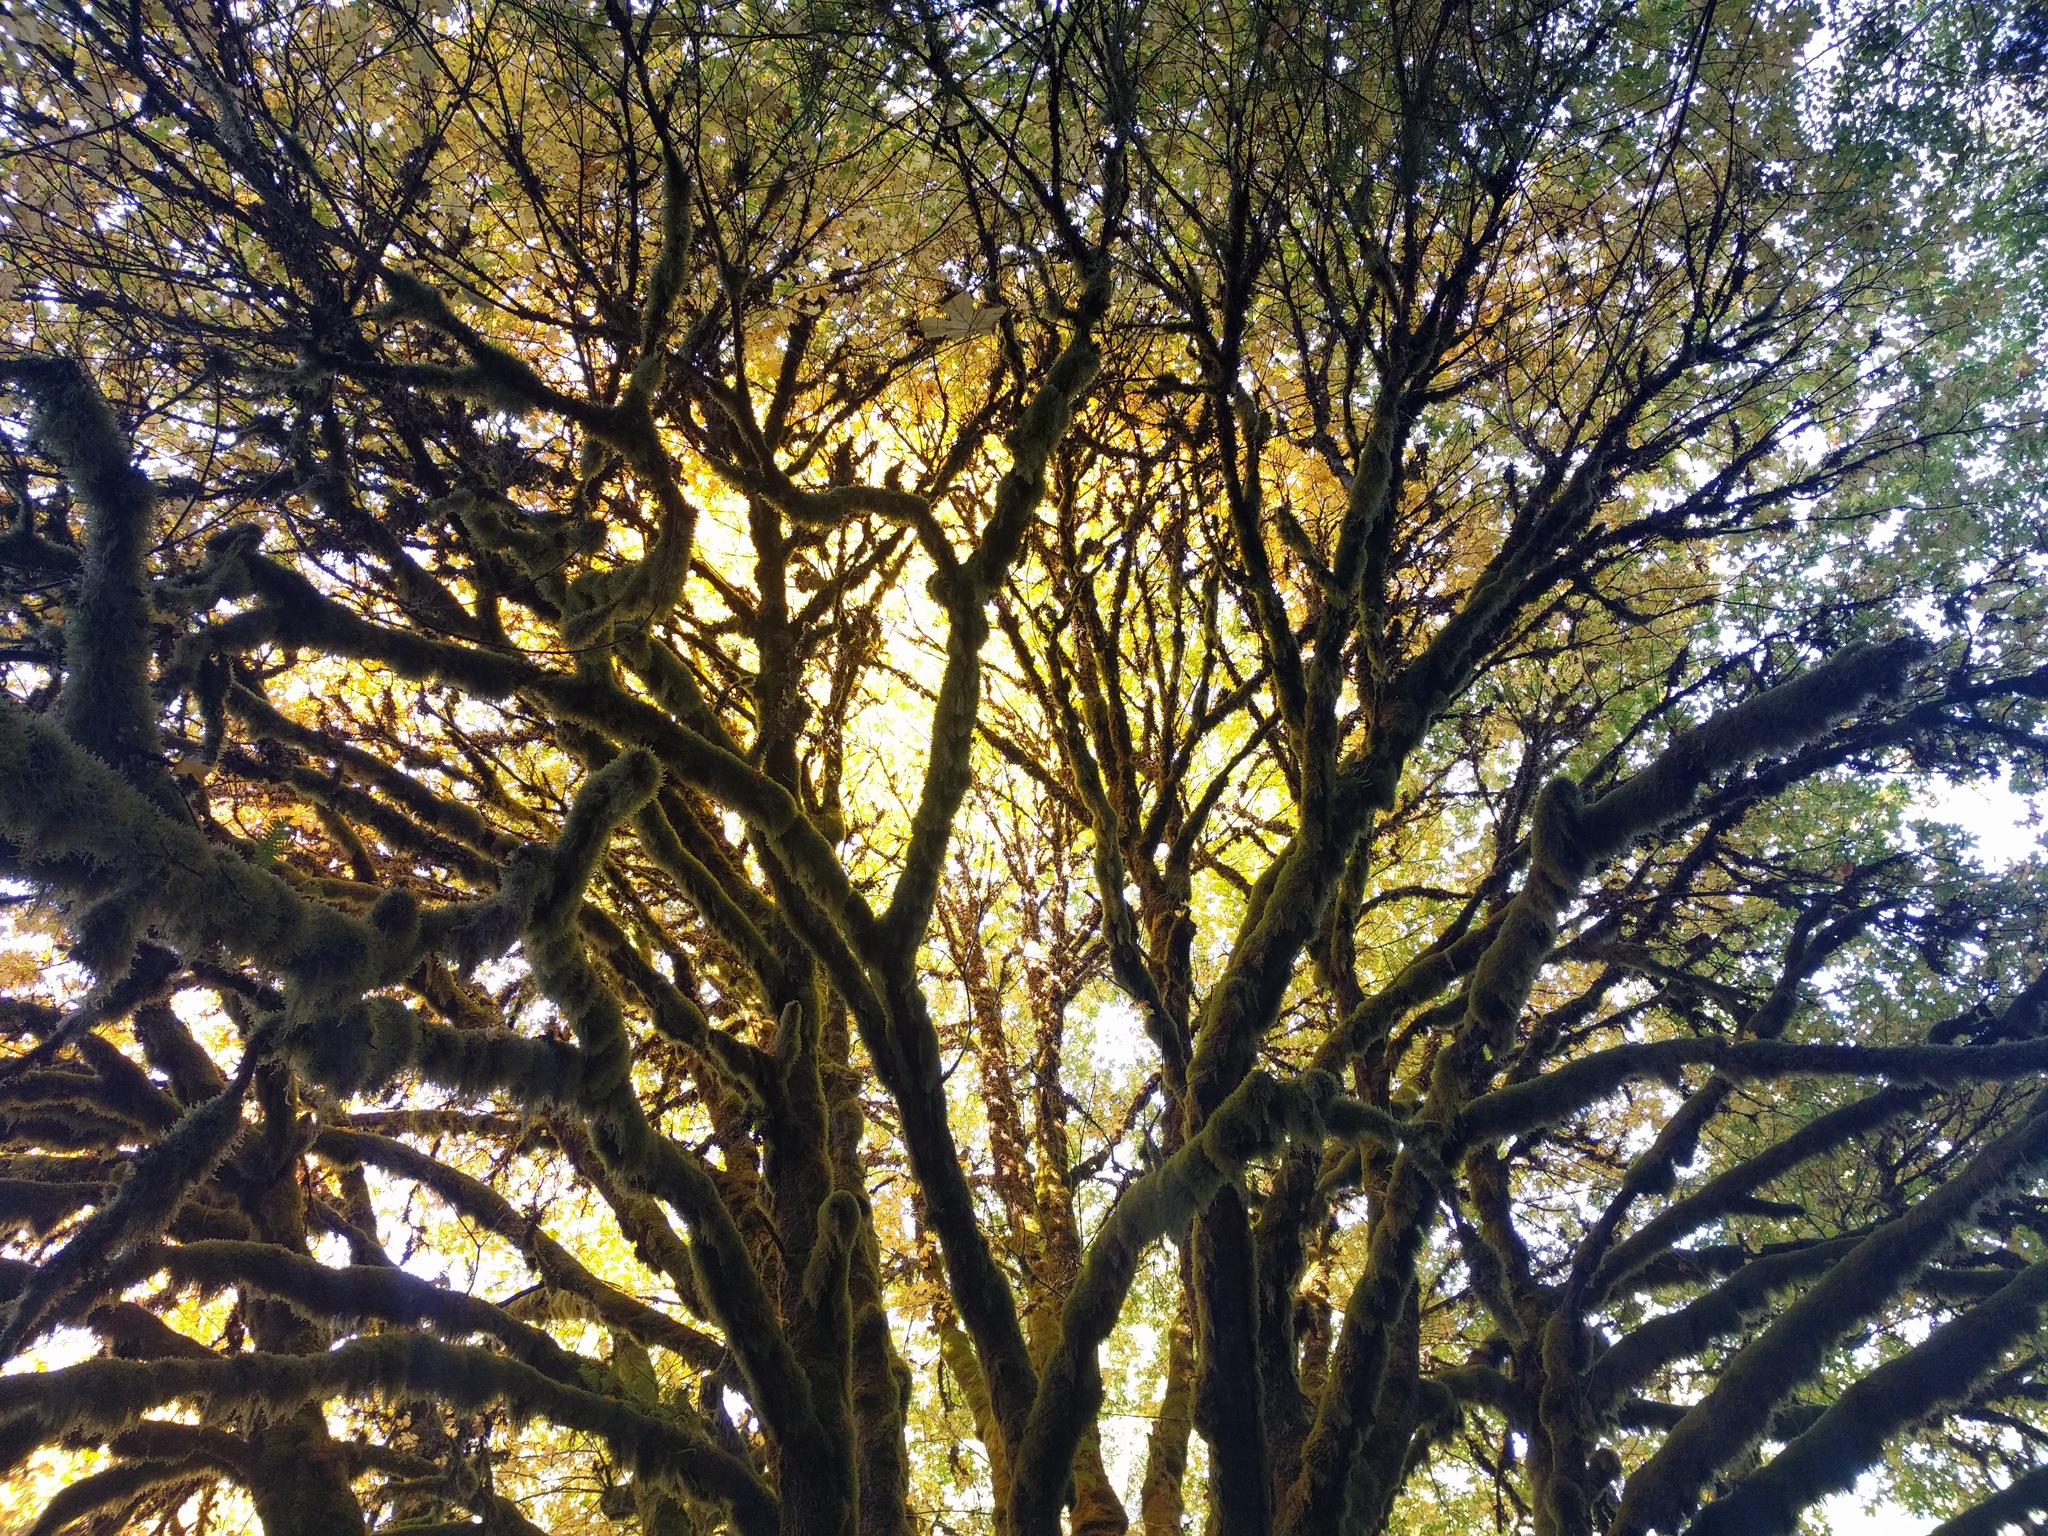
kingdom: Plantae
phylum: Tracheophyta
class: Magnoliopsida
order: Sapindales
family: Sapindaceae
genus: Acer
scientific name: Acer macrophyllum
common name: Oregon maple
